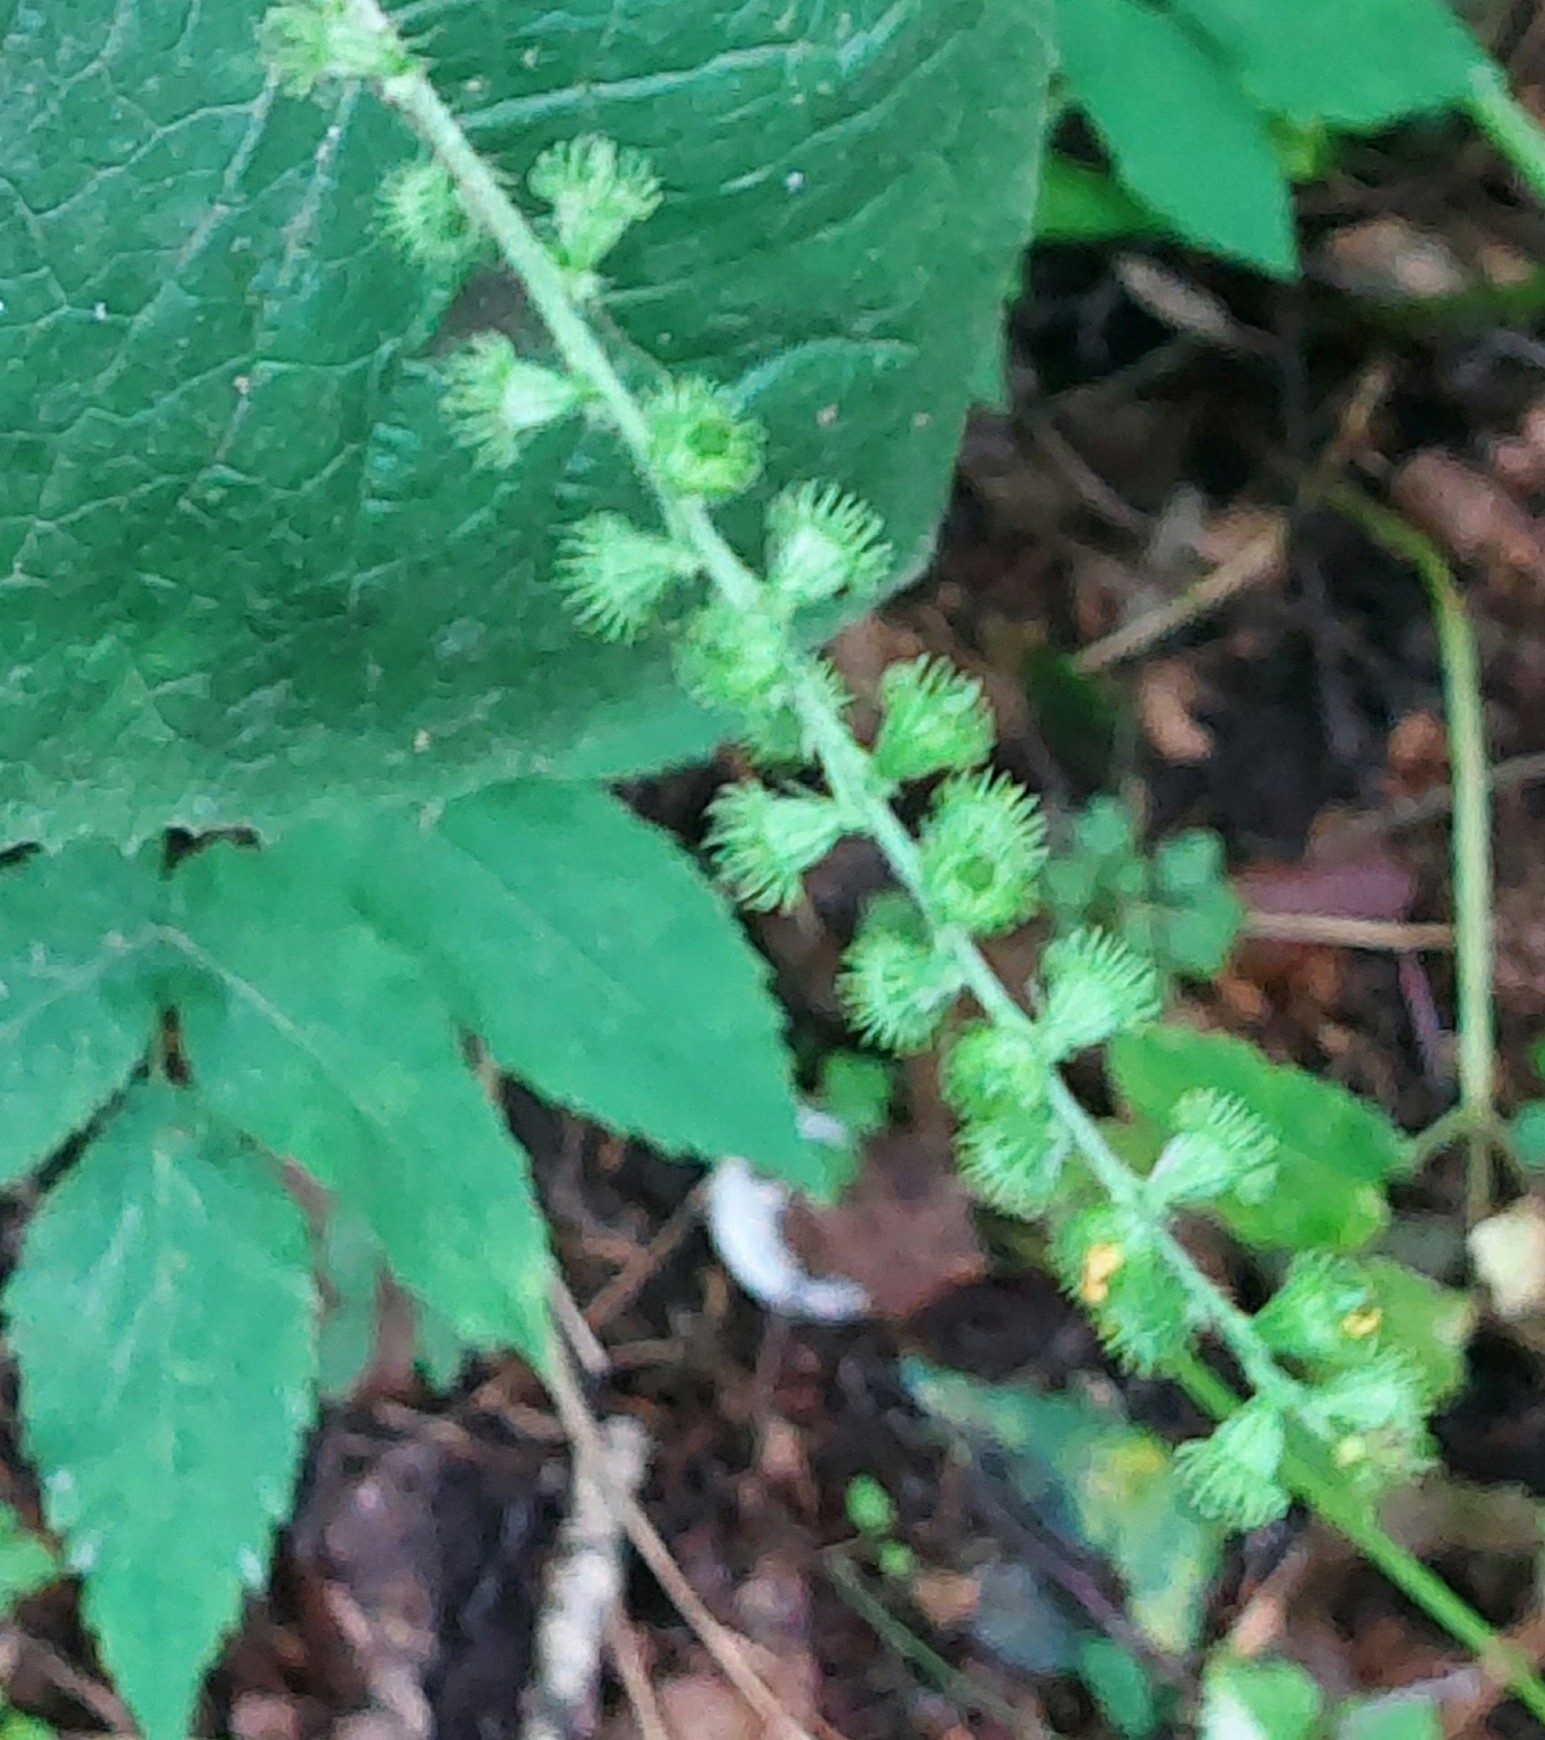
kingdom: Plantae
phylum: Tracheophyta
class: Magnoliopsida
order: Rosales
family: Rosaceae
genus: Agrimonia
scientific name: Agrimonia pilosa
